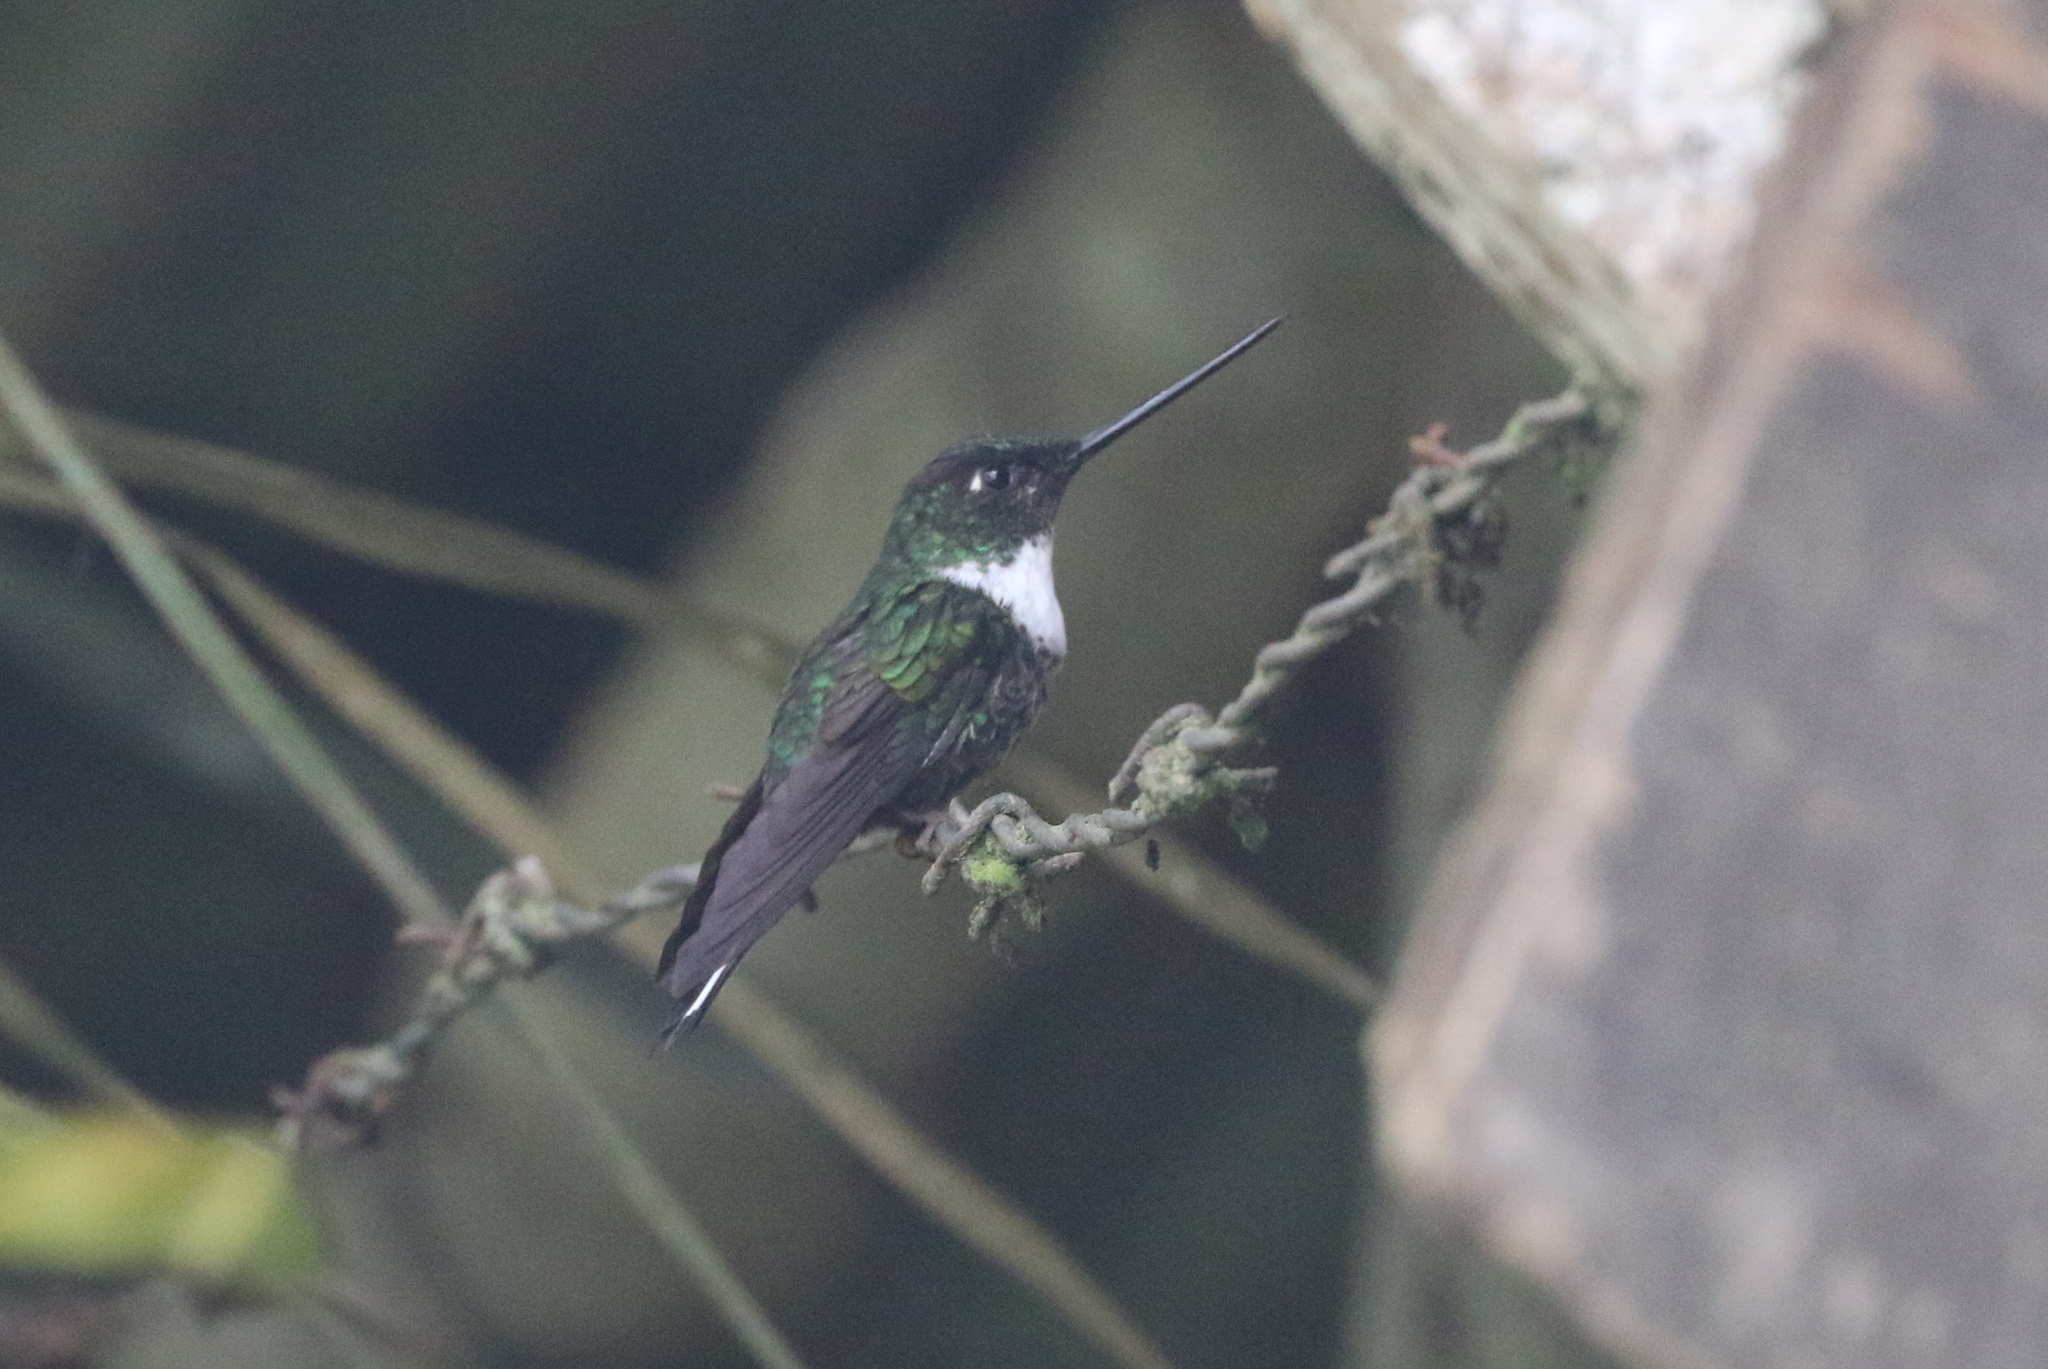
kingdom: Animalia
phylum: Chordata
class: Aves
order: Apodiformes
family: Trochilidae
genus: Coeligena
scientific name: Coeligena torquata
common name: Collared inca
